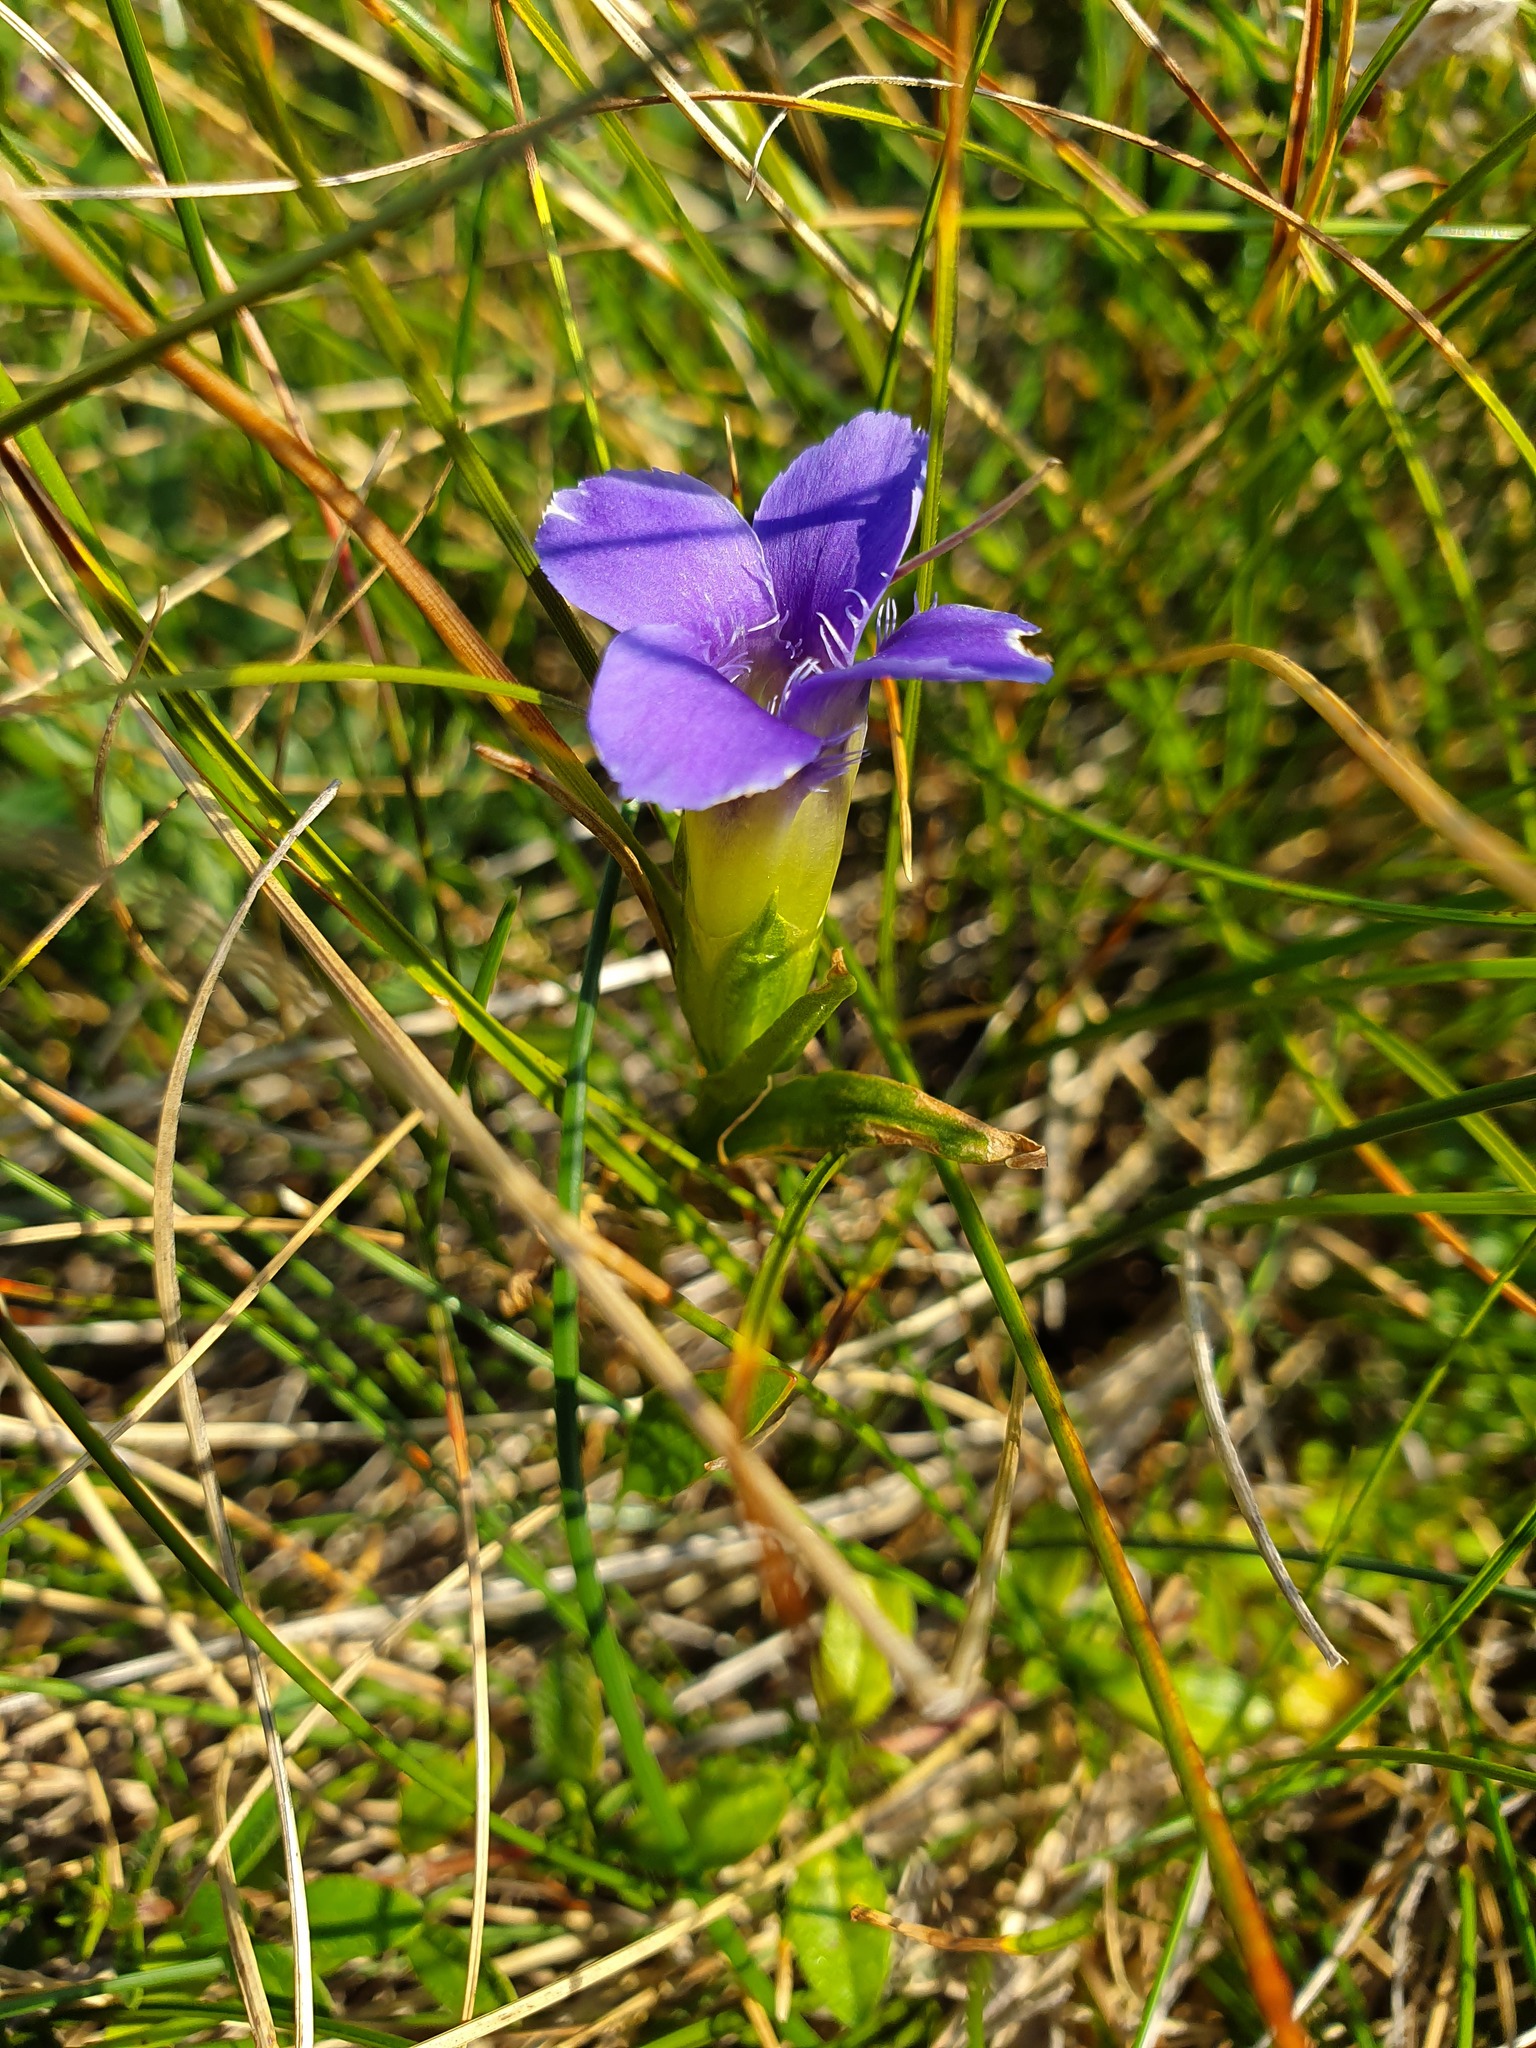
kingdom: Plantae
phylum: Tracheophyta
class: Magnoliopsida
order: Gentianales
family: Gentianaceae
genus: Gentianopsis
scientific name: Gentianopsis ciliata
